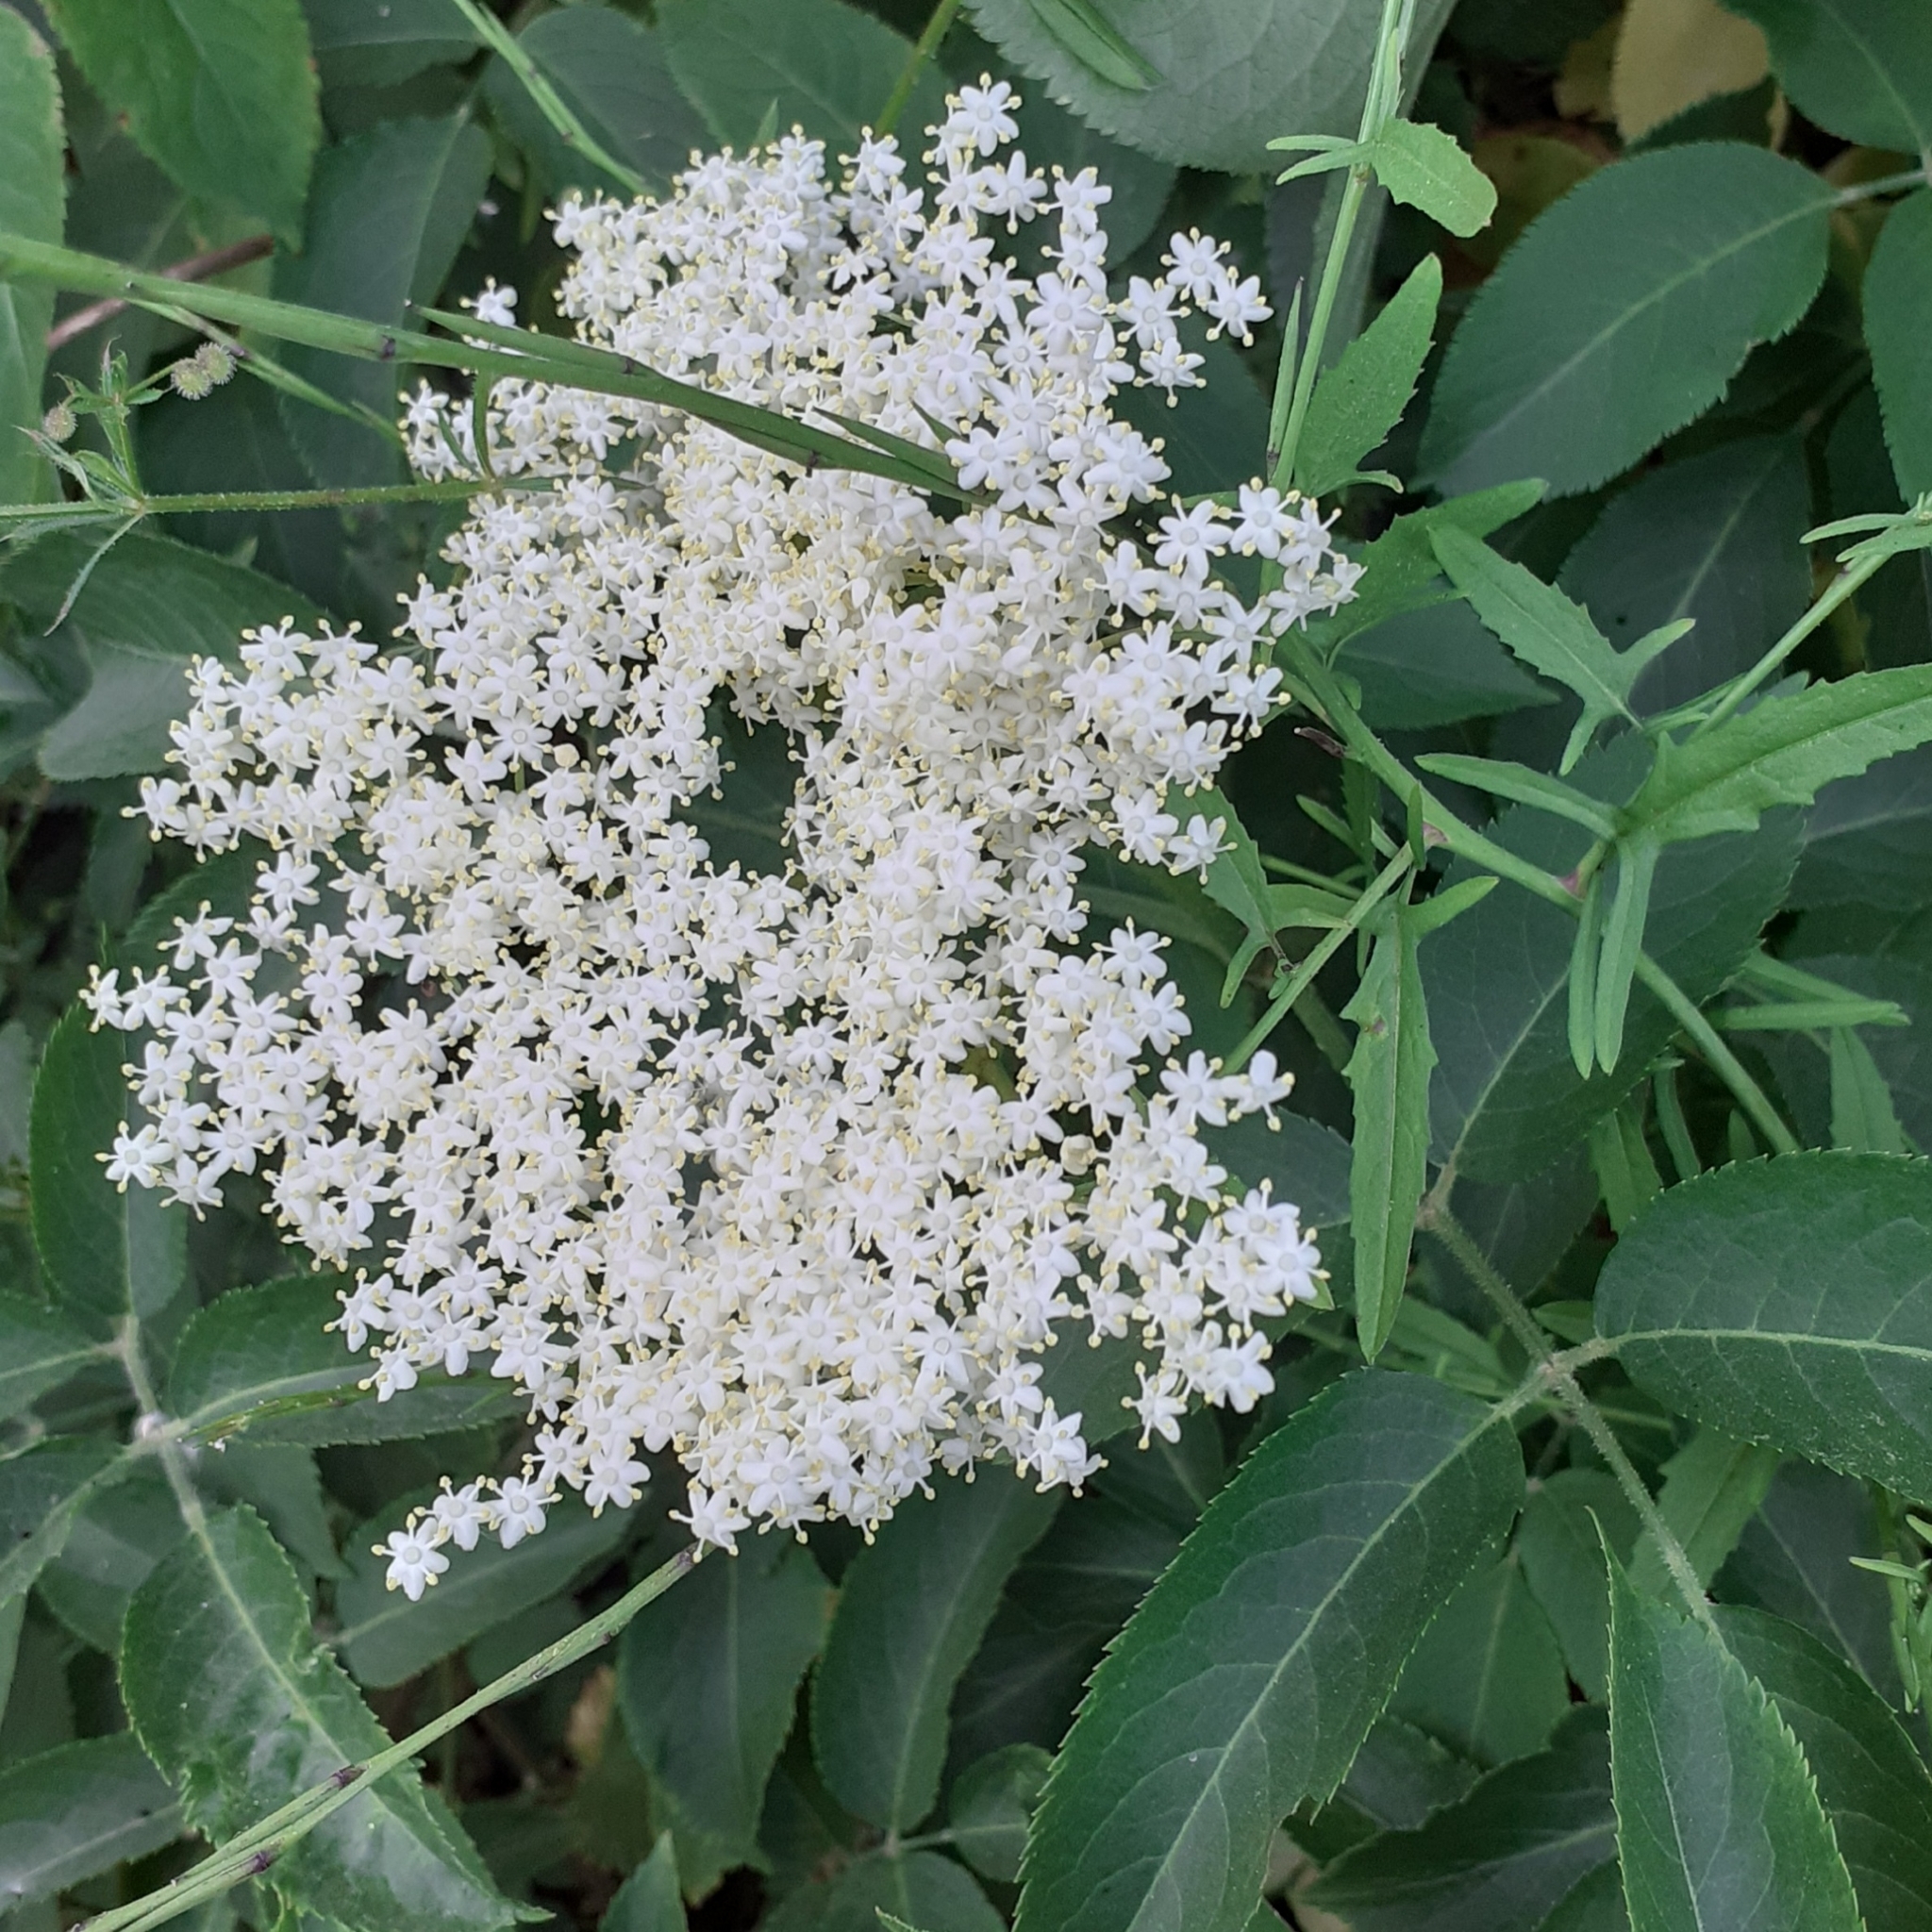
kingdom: Plantae
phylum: Tracheophyta
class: Magnoliopsida
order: Dipsacales
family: Viburnaceae
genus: Sambucus
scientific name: Sambucus nigra
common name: Elder
